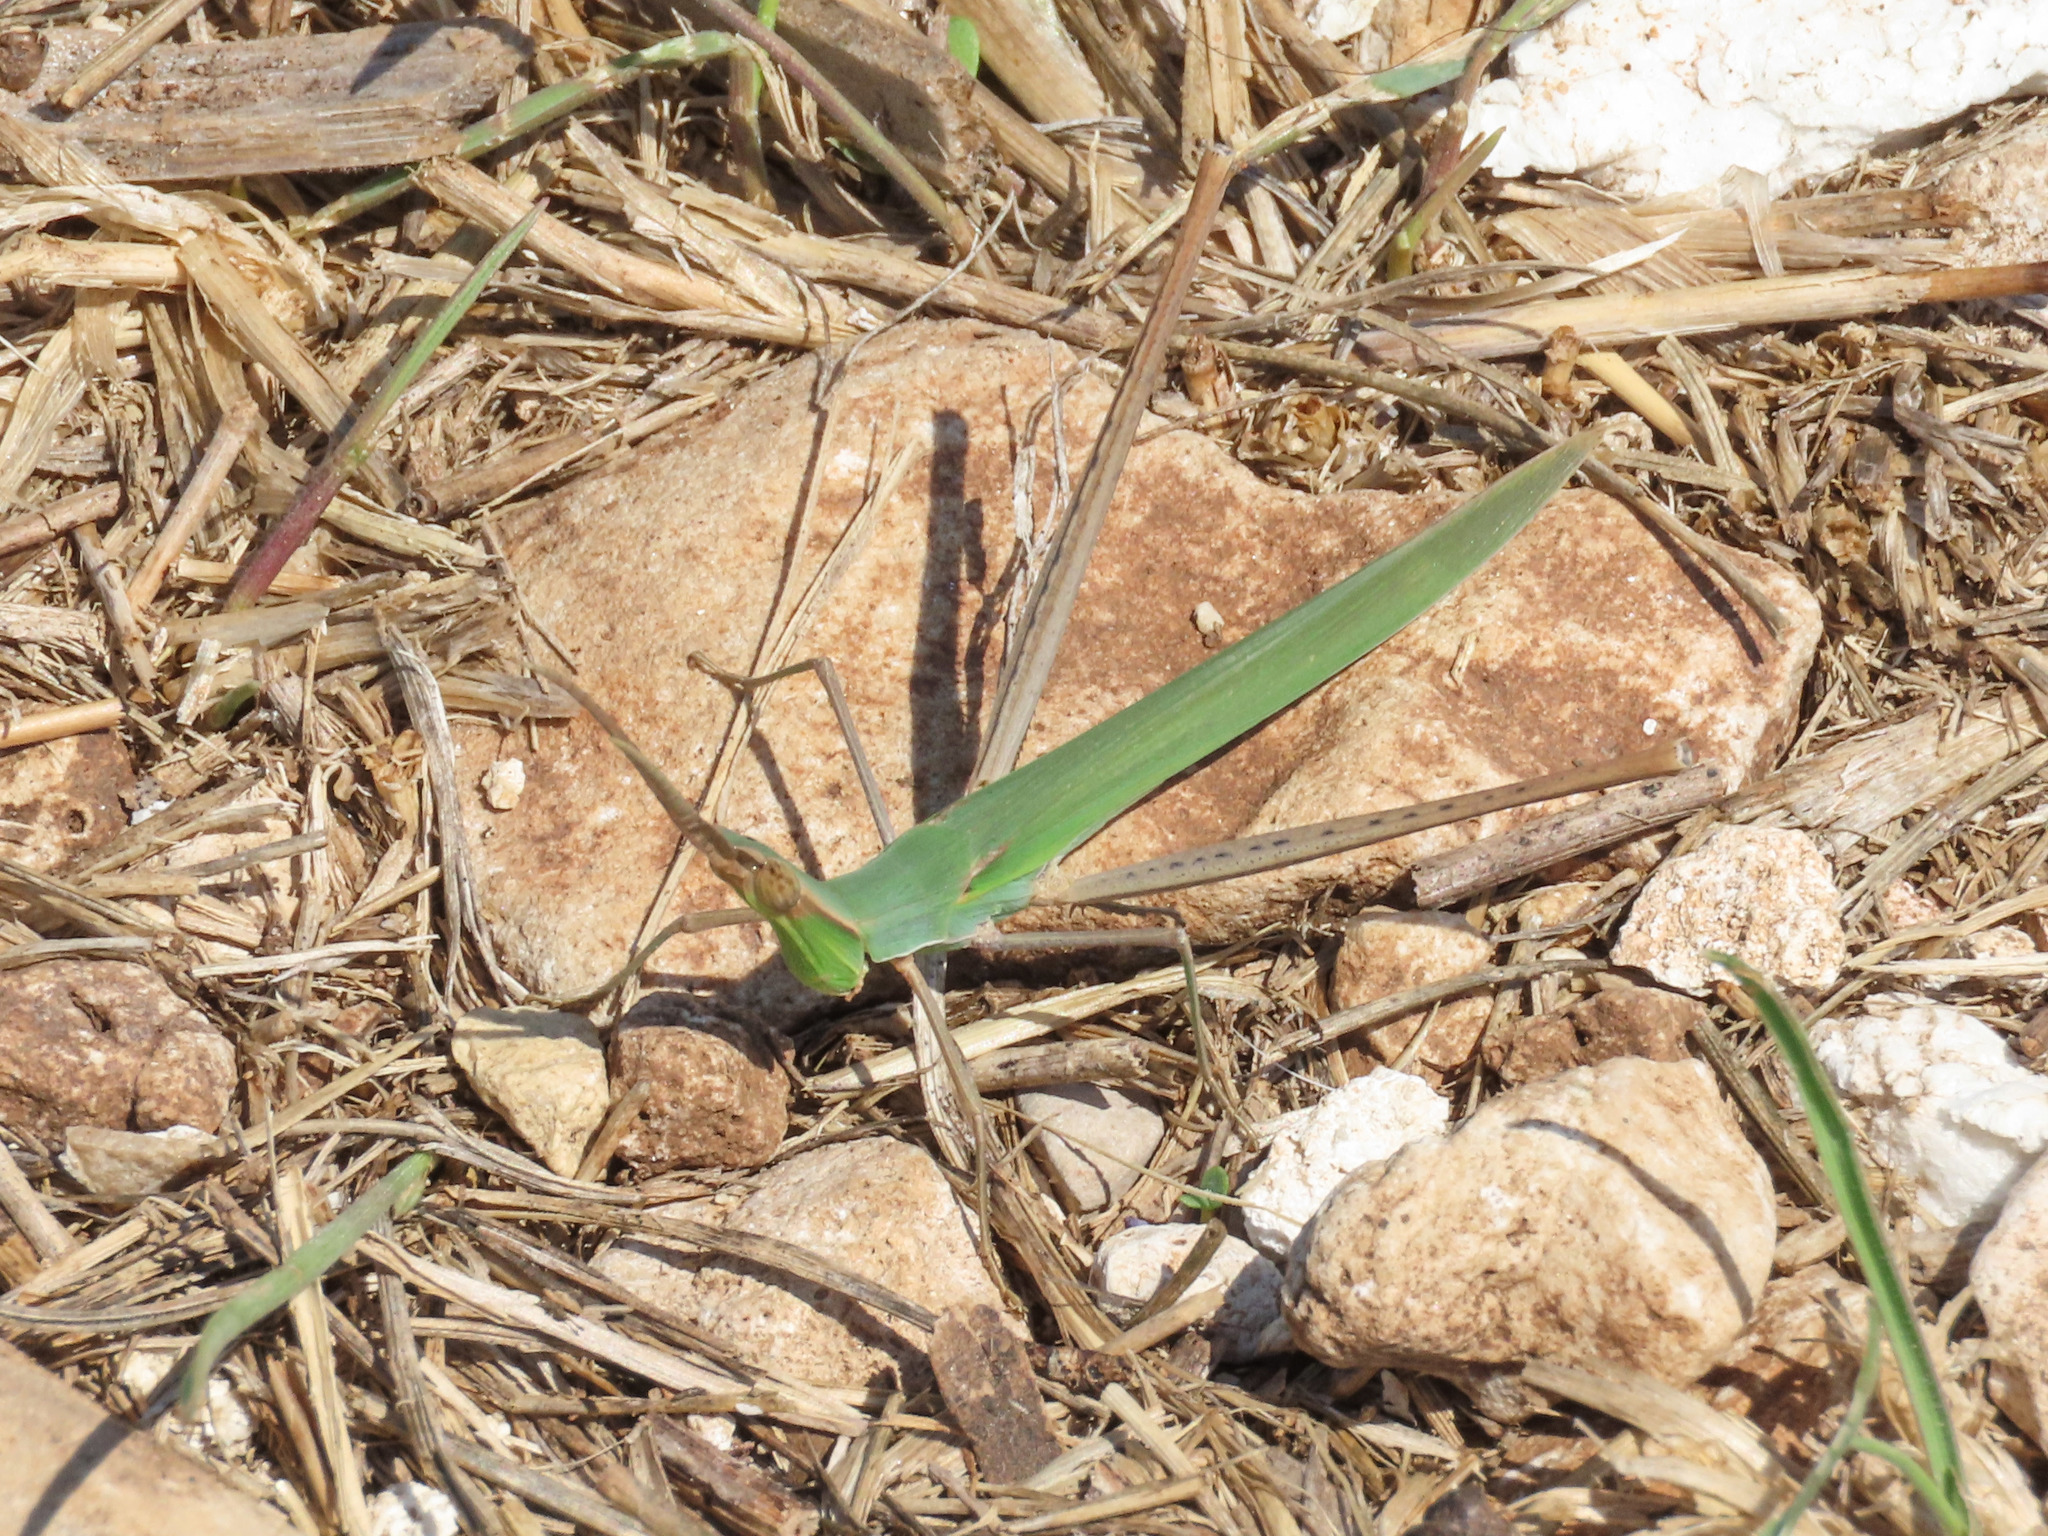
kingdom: Animalia
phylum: Arthropoda
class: Insecta
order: Orthoptera
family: Acrididae
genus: Acrida
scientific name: Acrida ungarica
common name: Common cone-headed grasshopper
